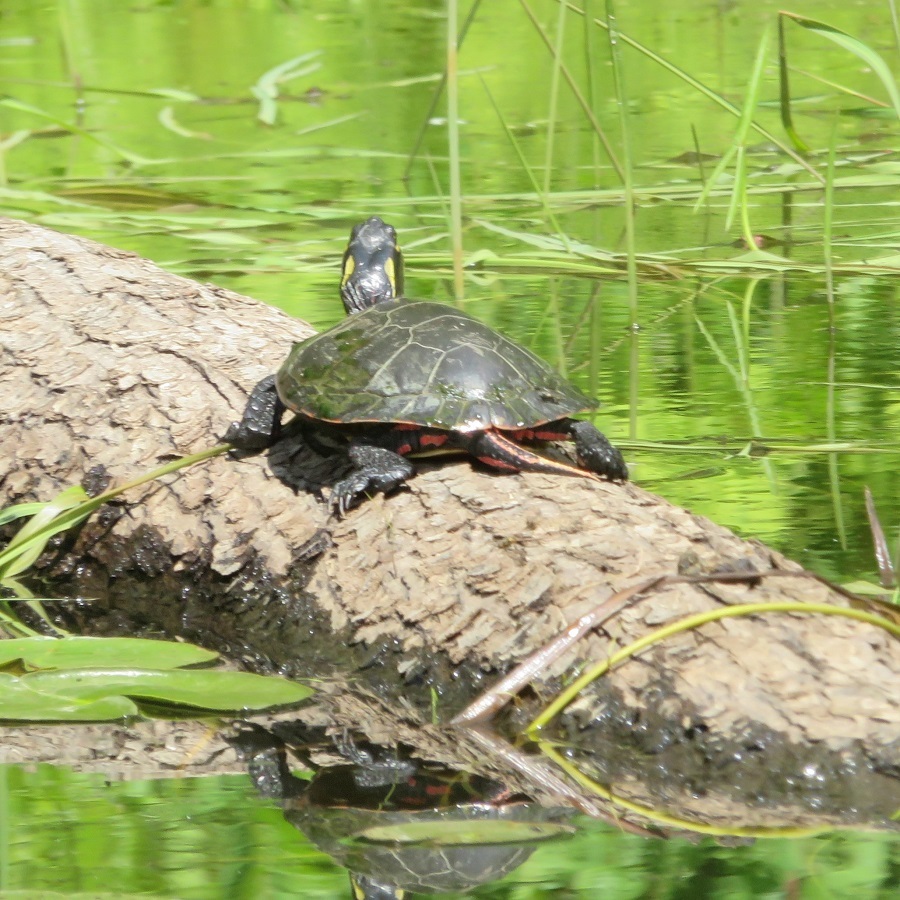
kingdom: Animalia
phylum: Chordata
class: Testudines
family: Emydidae
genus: Chrysemys
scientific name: Chrysemys picta
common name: Painted turtle
